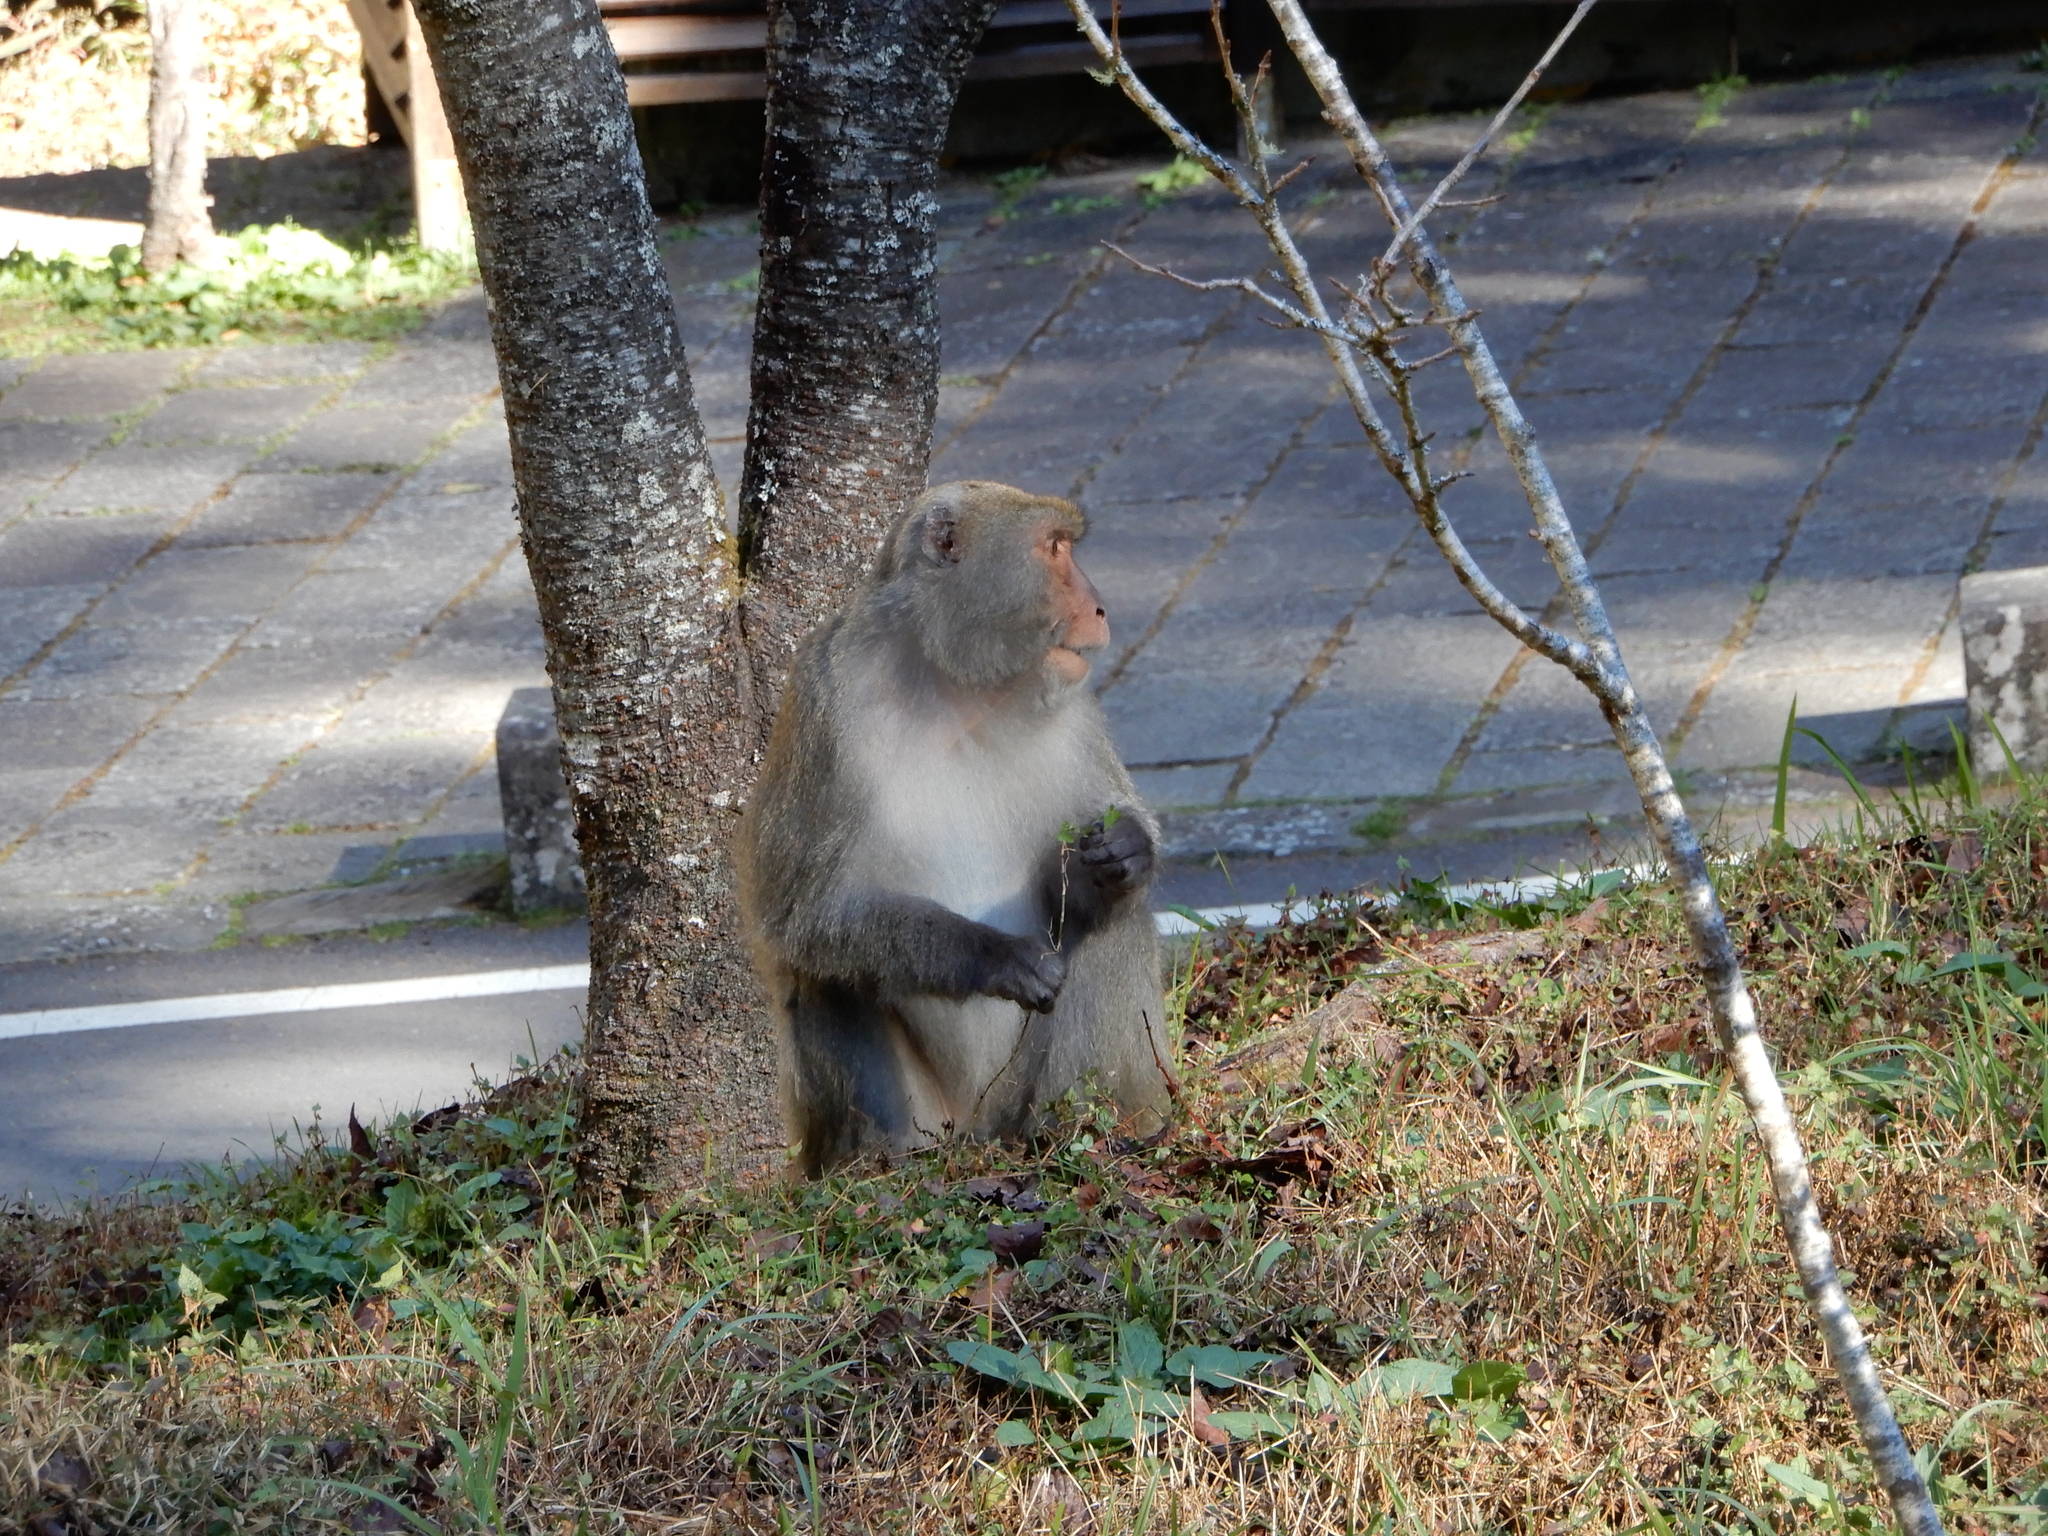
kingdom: Animalia
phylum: Chordata
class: Mammalia
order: Primates
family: Cercopithecidae
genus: Macaca
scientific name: Macaca cyclopis
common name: Formosan rock macaque
